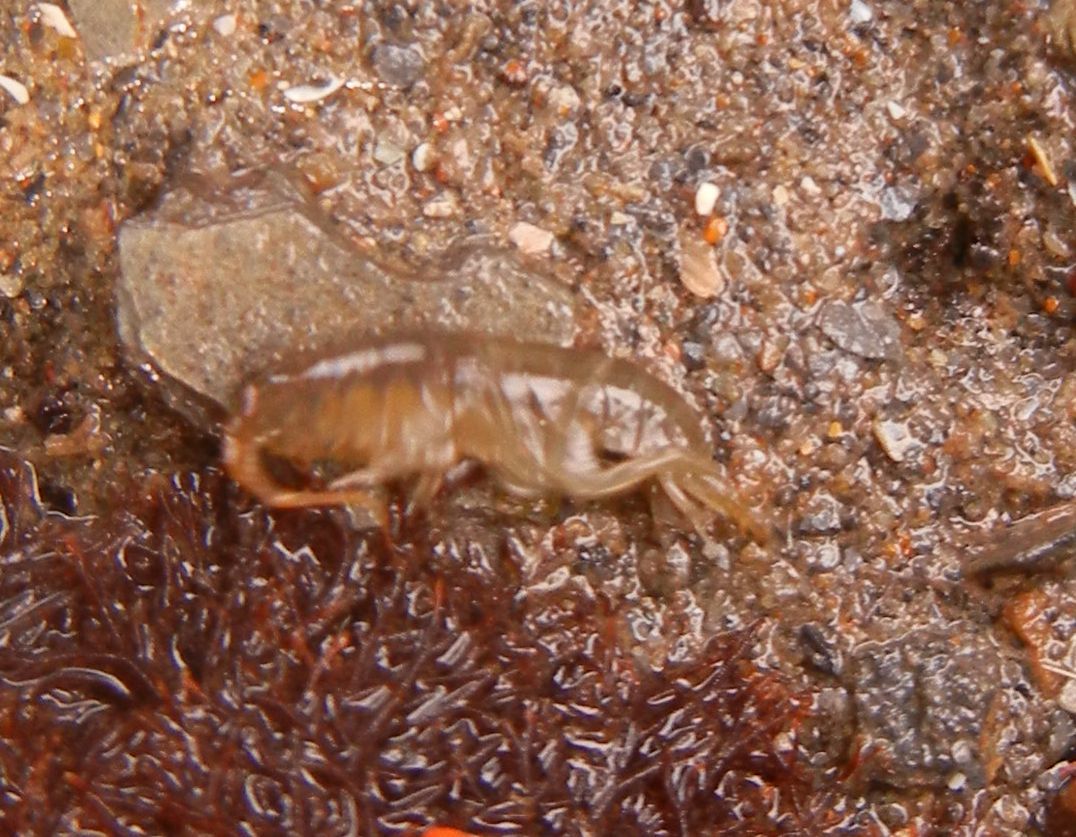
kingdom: Animalia
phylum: Arthropoda
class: Malacostraca
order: Amphipoda
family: Talitridae
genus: Talitrus
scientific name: Talitrus saltator
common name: Sand hopper
